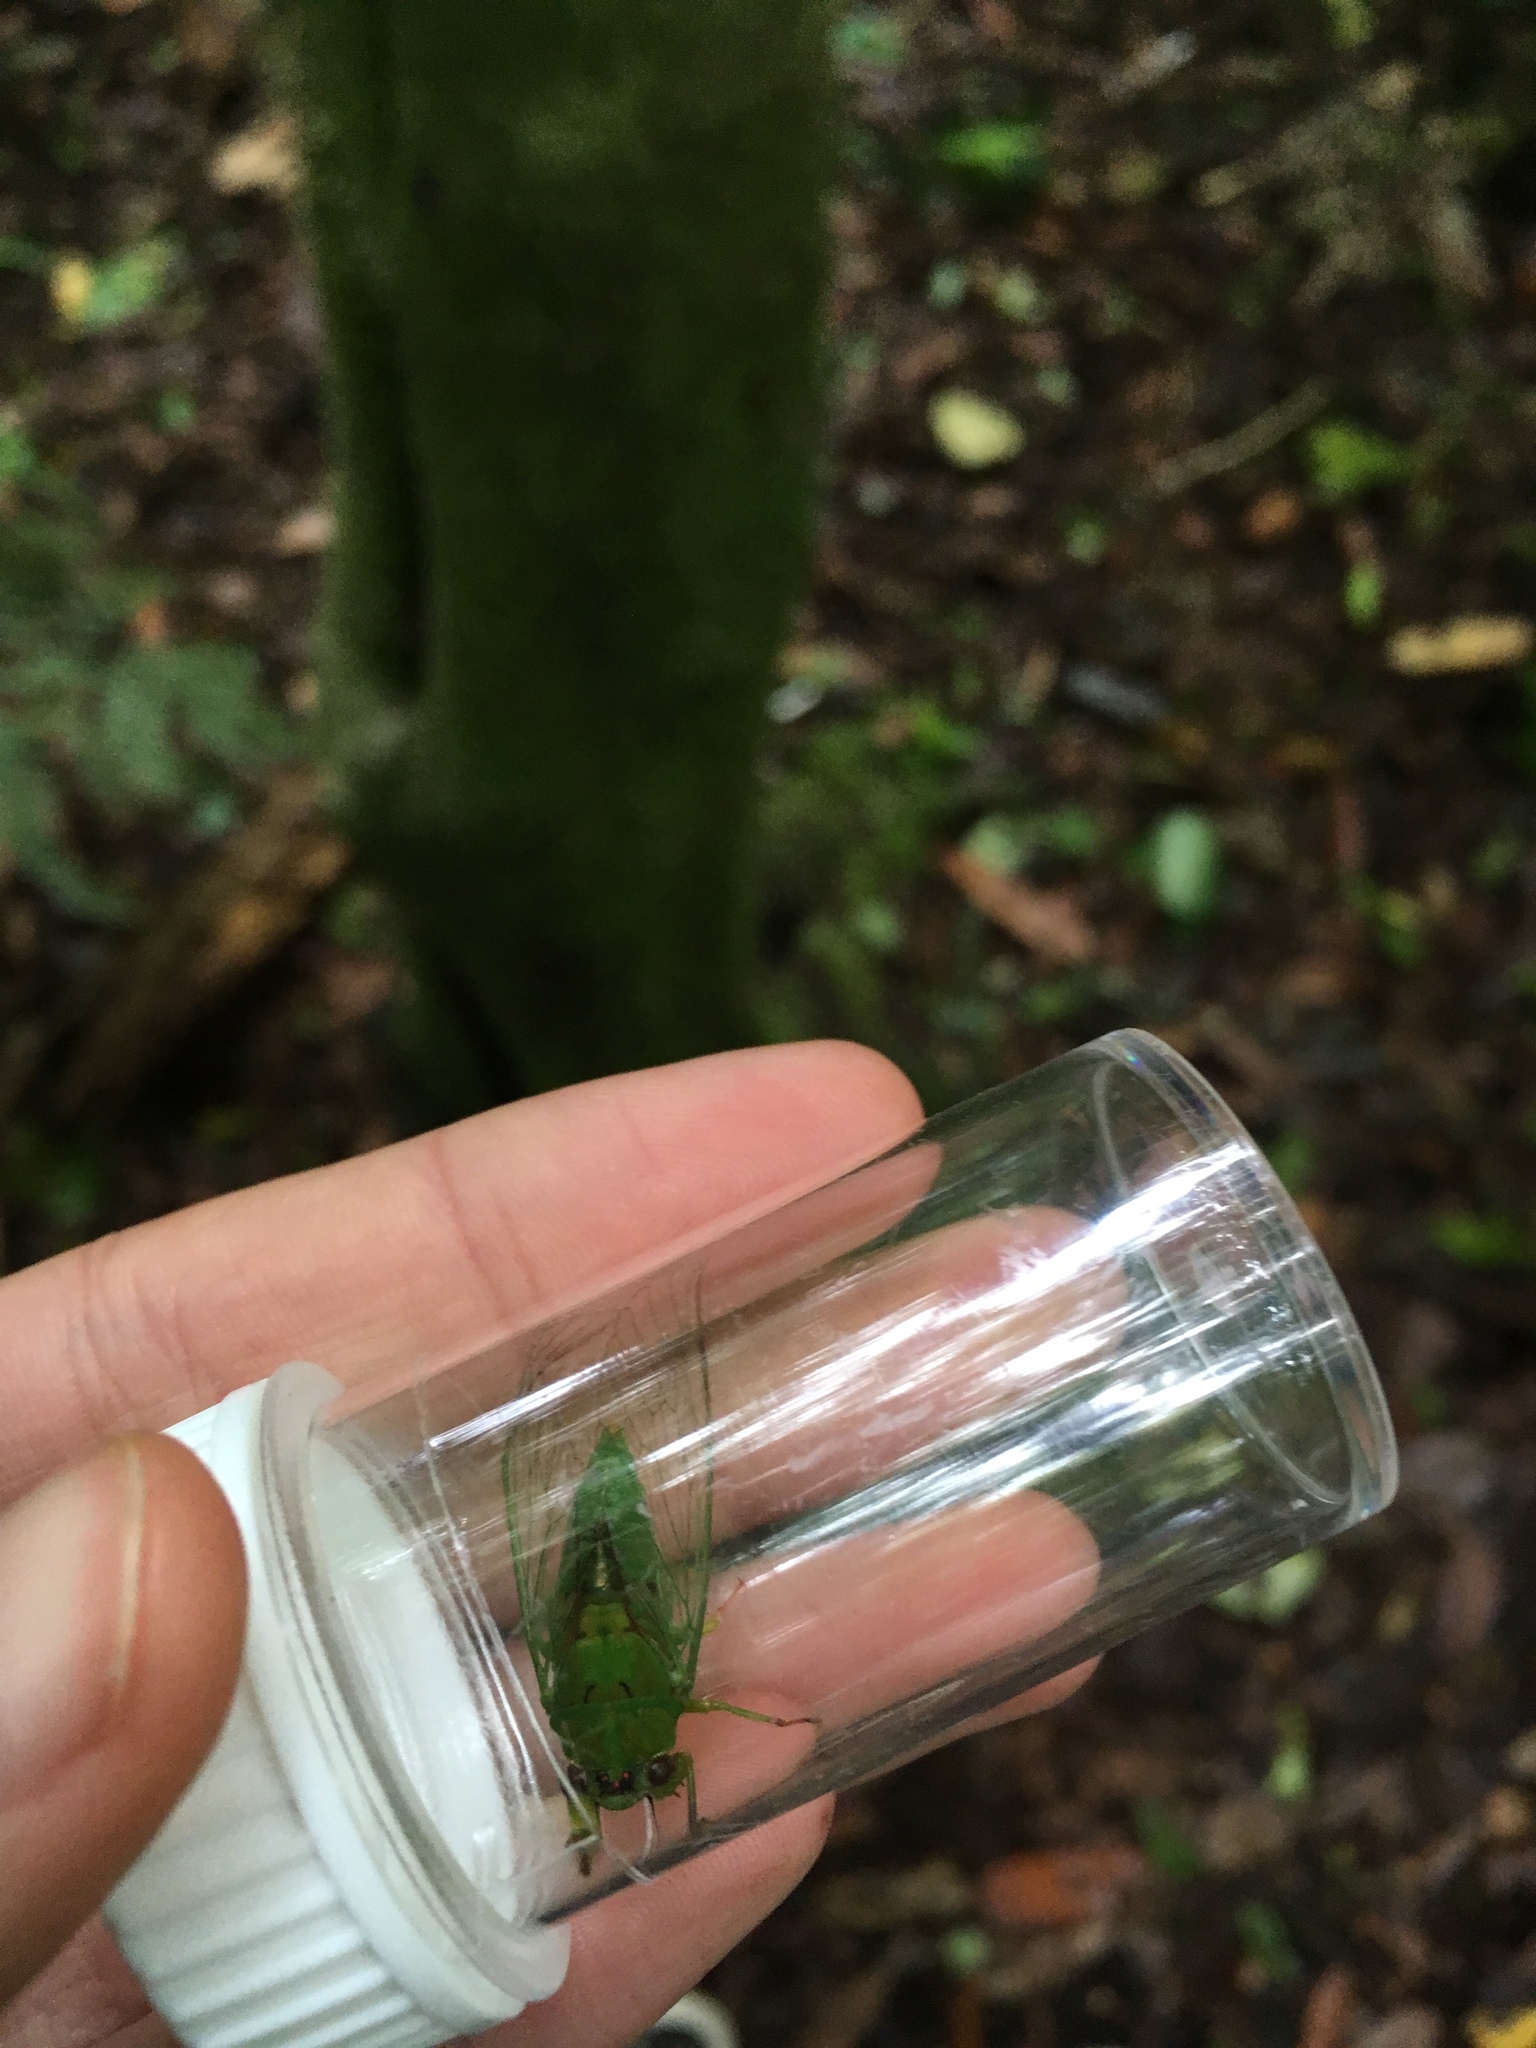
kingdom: Animalia
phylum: Arthropoda
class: Insecta
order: Hemiptera
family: Cicadidae
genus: Kikihia
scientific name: Kikihia ochrina
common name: April green cicada
